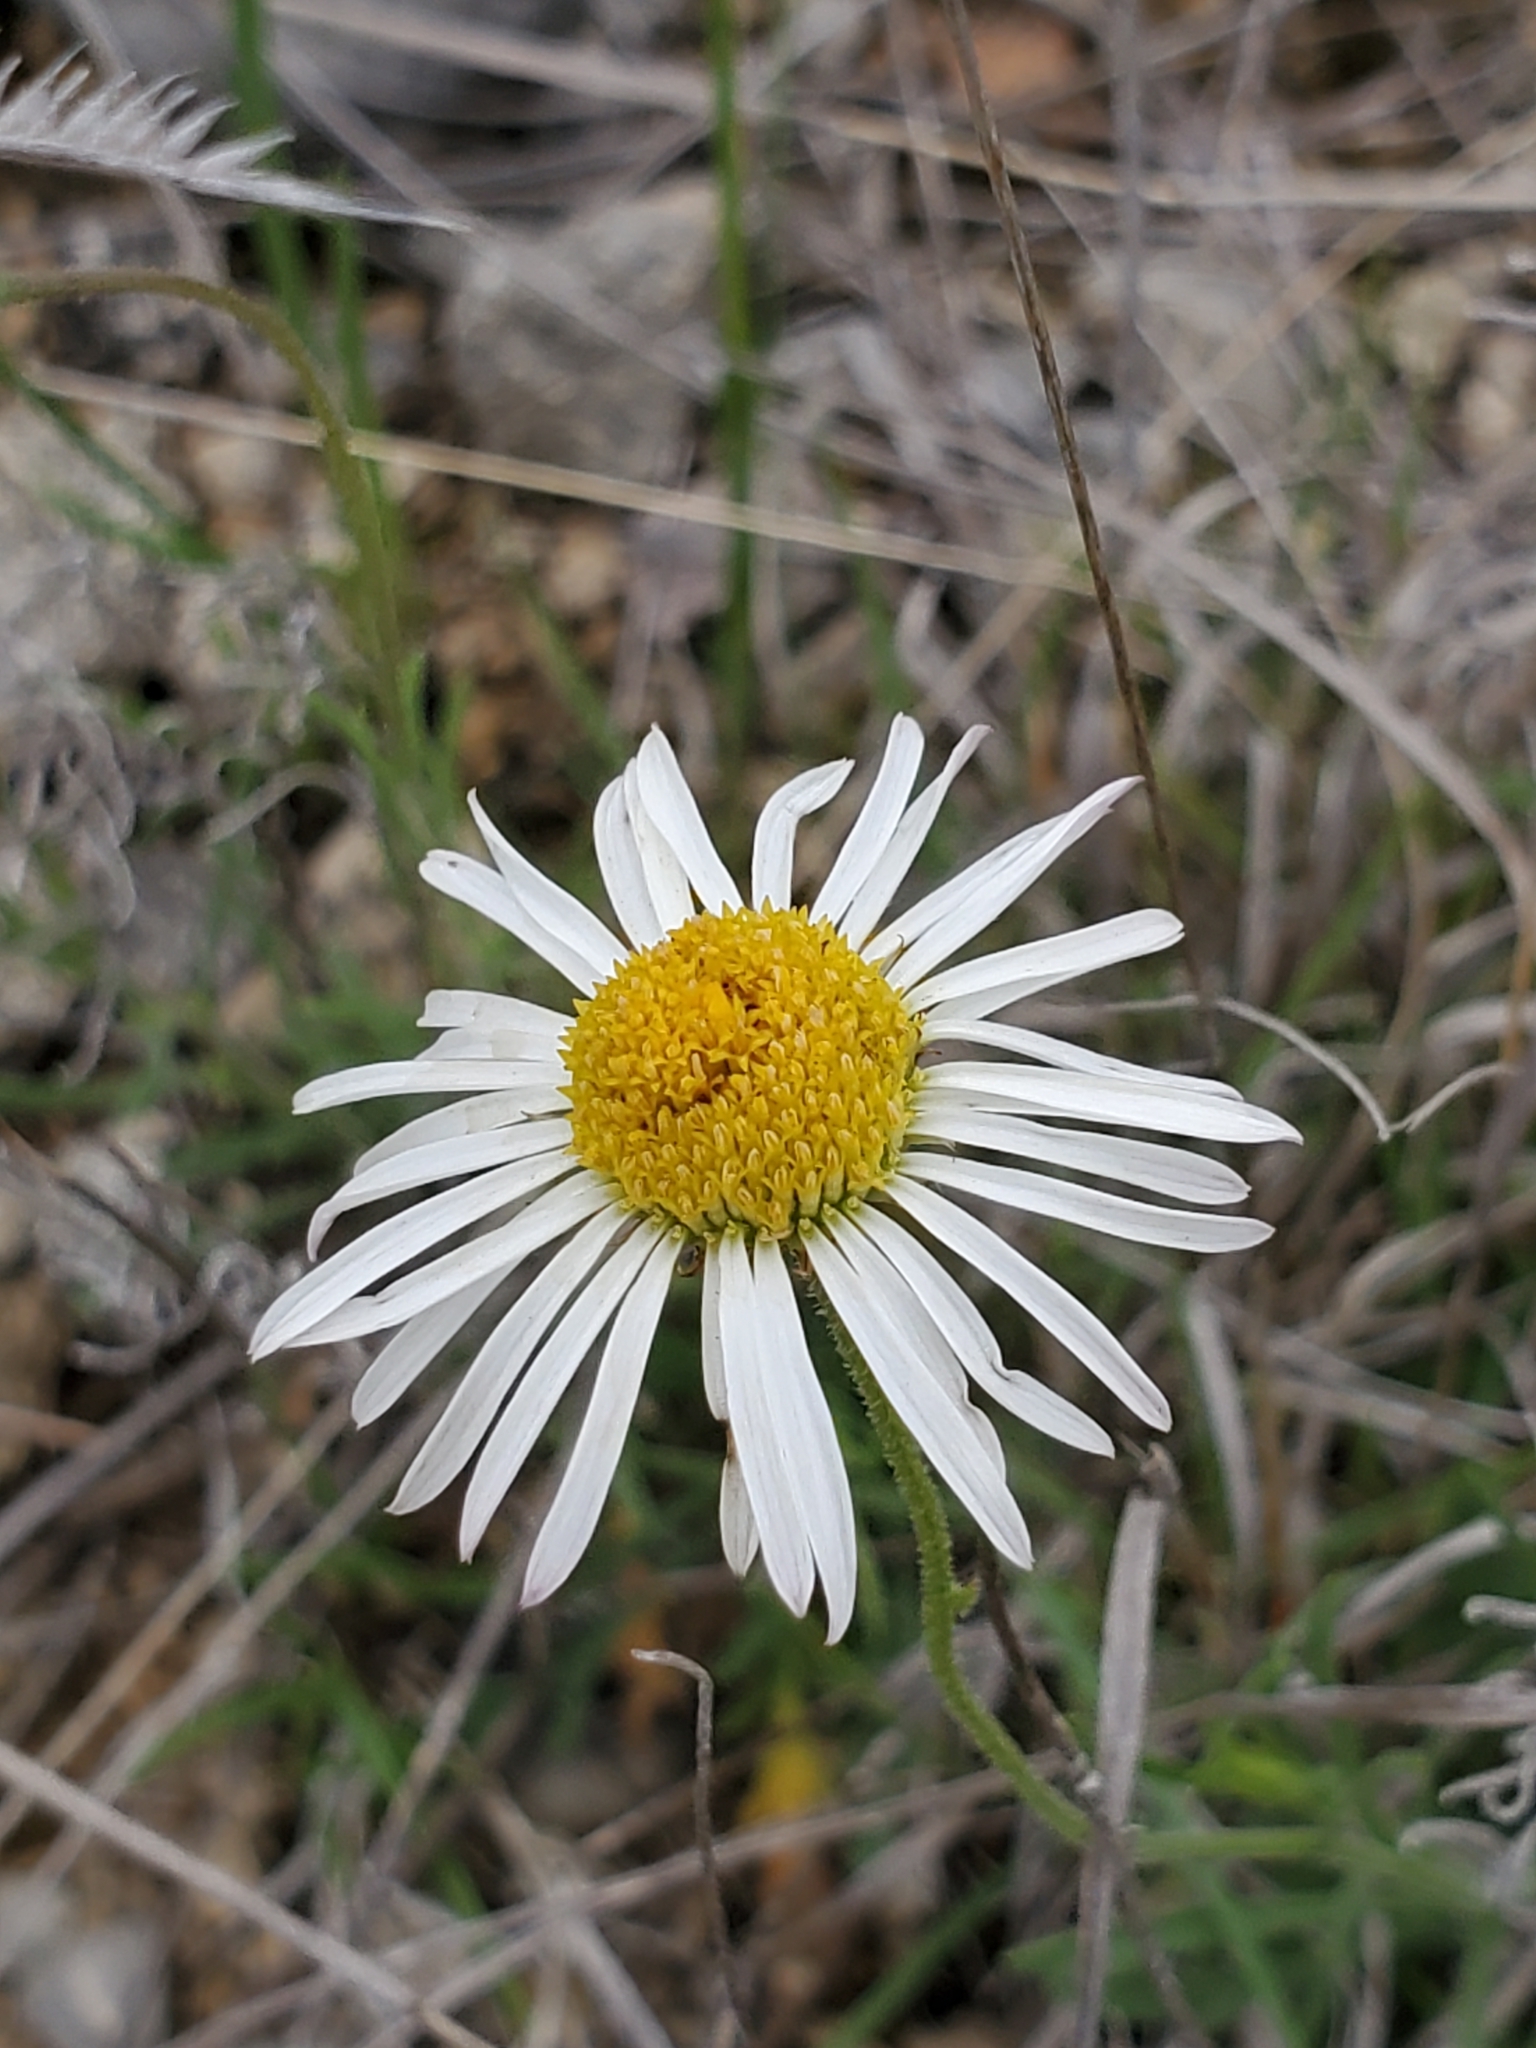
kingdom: Plantae
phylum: Tracheophyta
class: Magnoliopsida
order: Asterales
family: Asteraceae
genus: Erigeron
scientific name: Erigeron modestus
